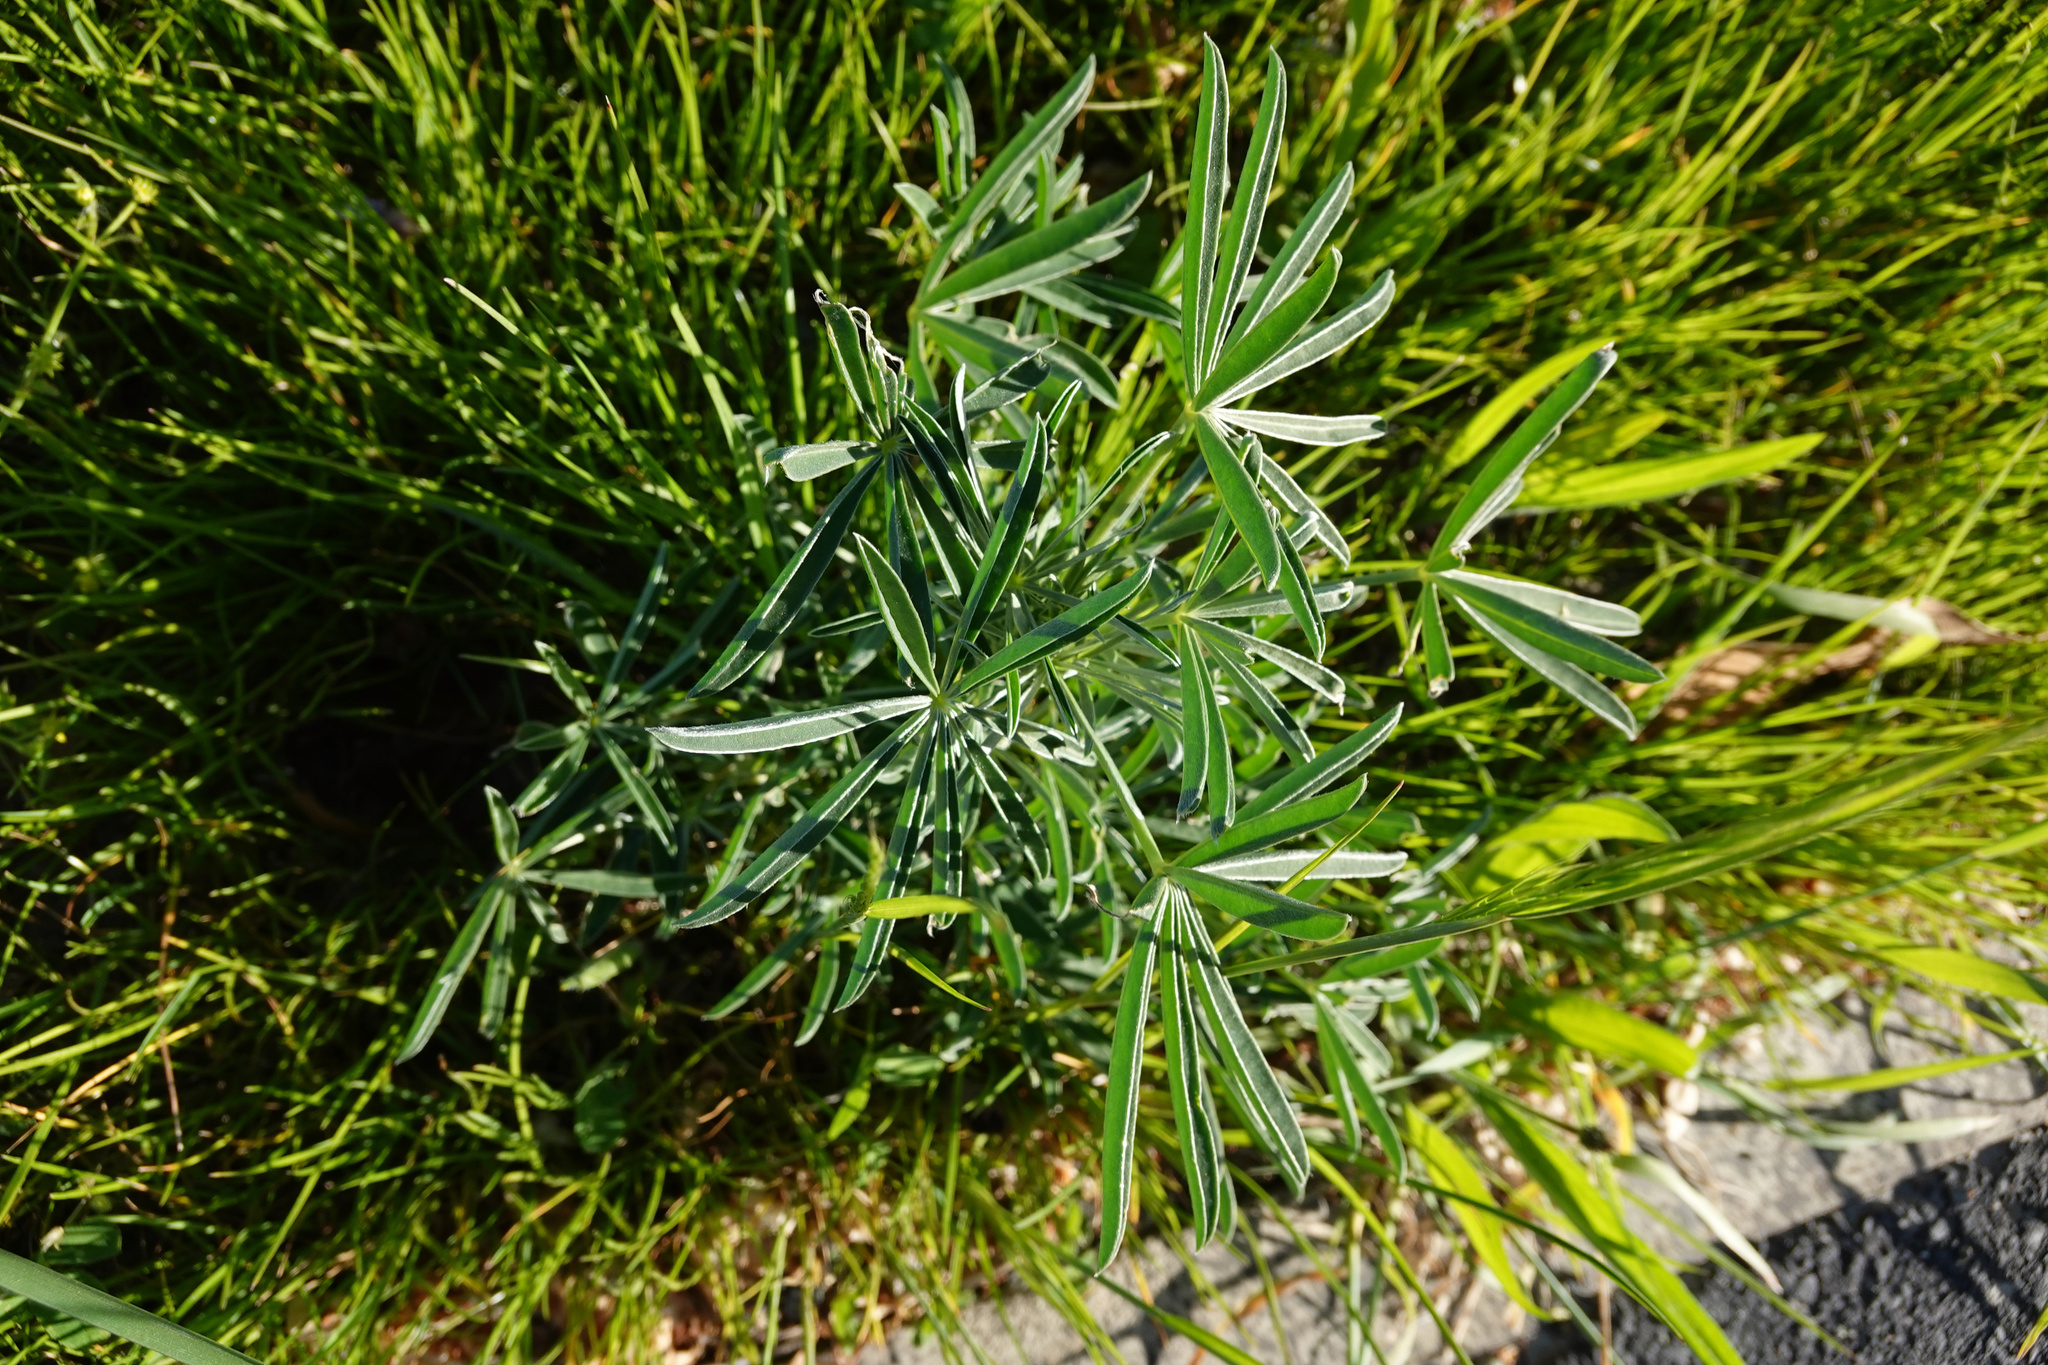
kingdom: Plantae
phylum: Tracheophyta
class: Magnoliopsida
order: Fabales
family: Fabaceae
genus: Lupinus
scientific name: Lupinus arboreus
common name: Yellow bush lupine
